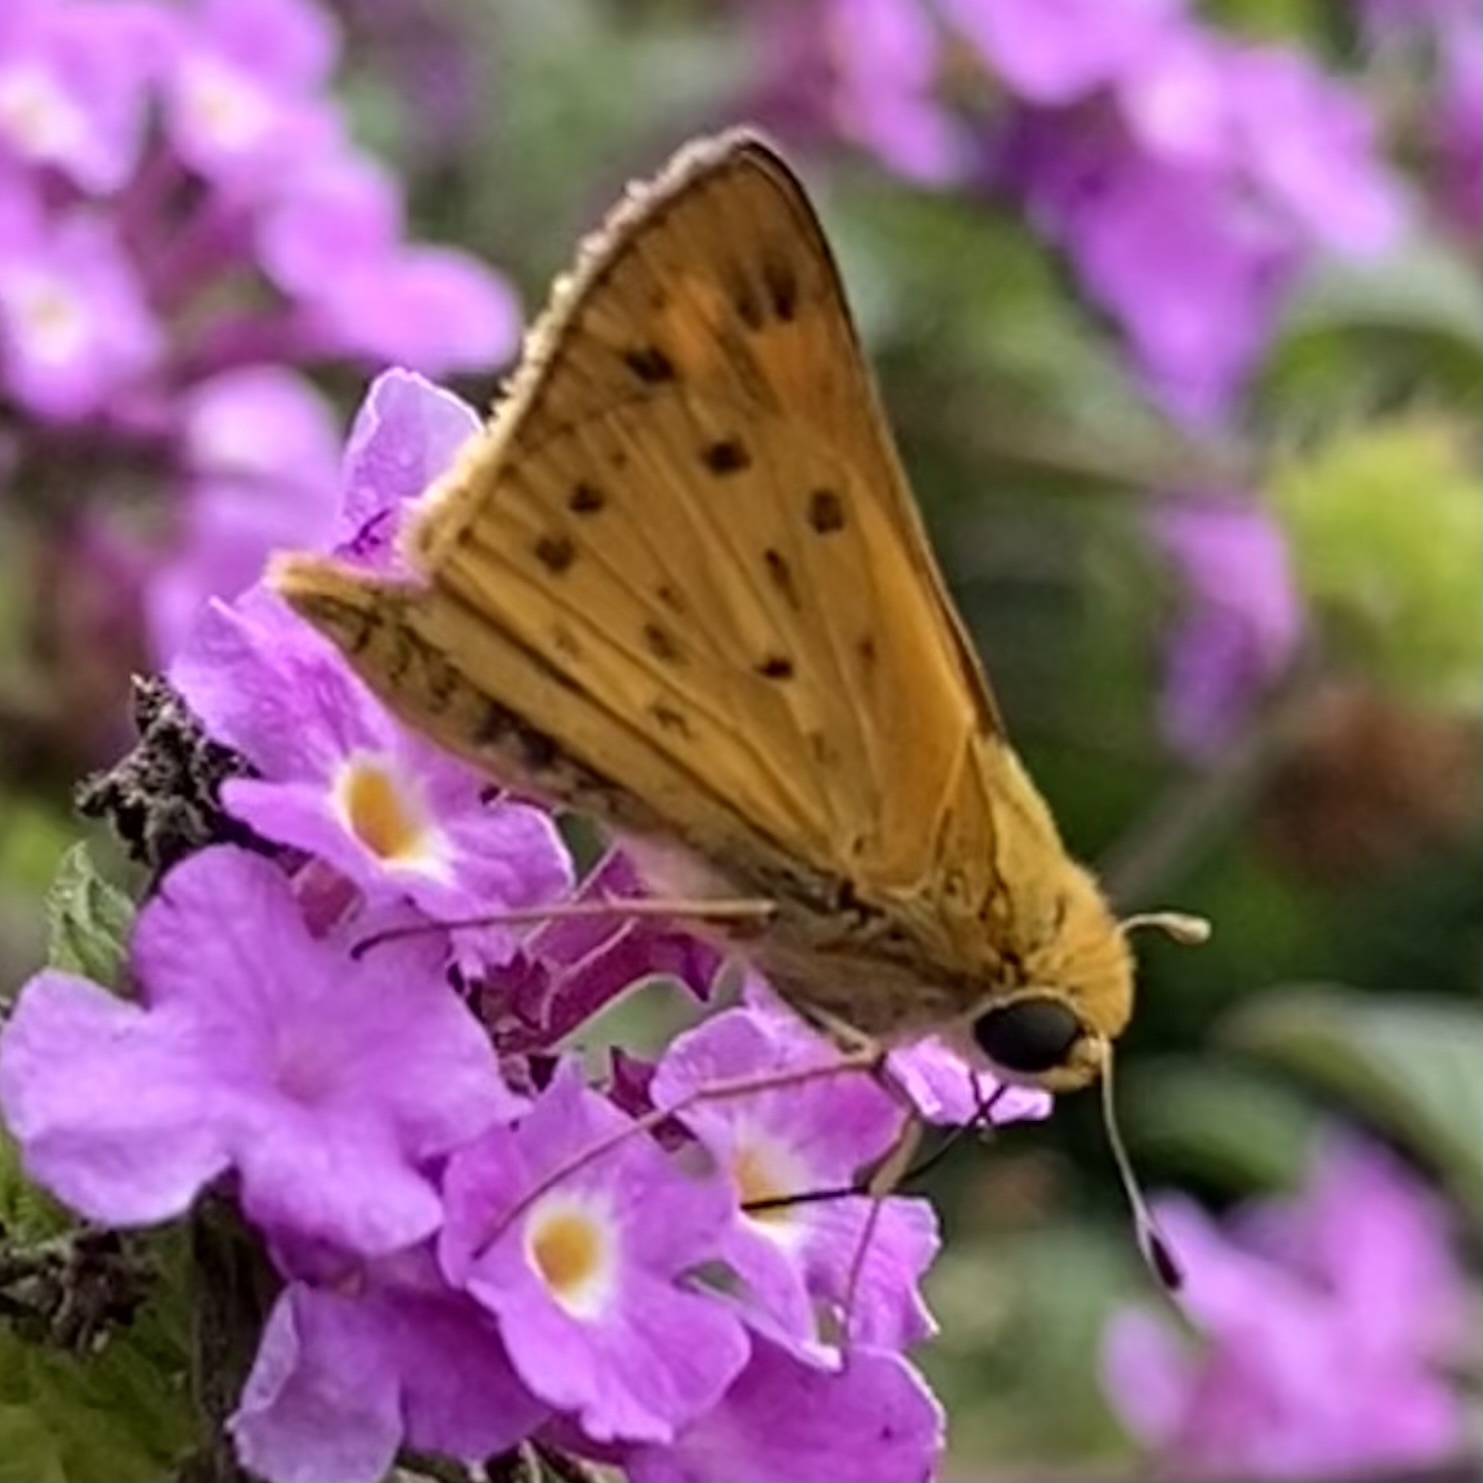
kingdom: Animalia
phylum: Arthropoda
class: Insecta
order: Lepidoptera
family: Hesperiidae
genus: Hylephila
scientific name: Hylephila phyleus
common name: Fiery skipper
